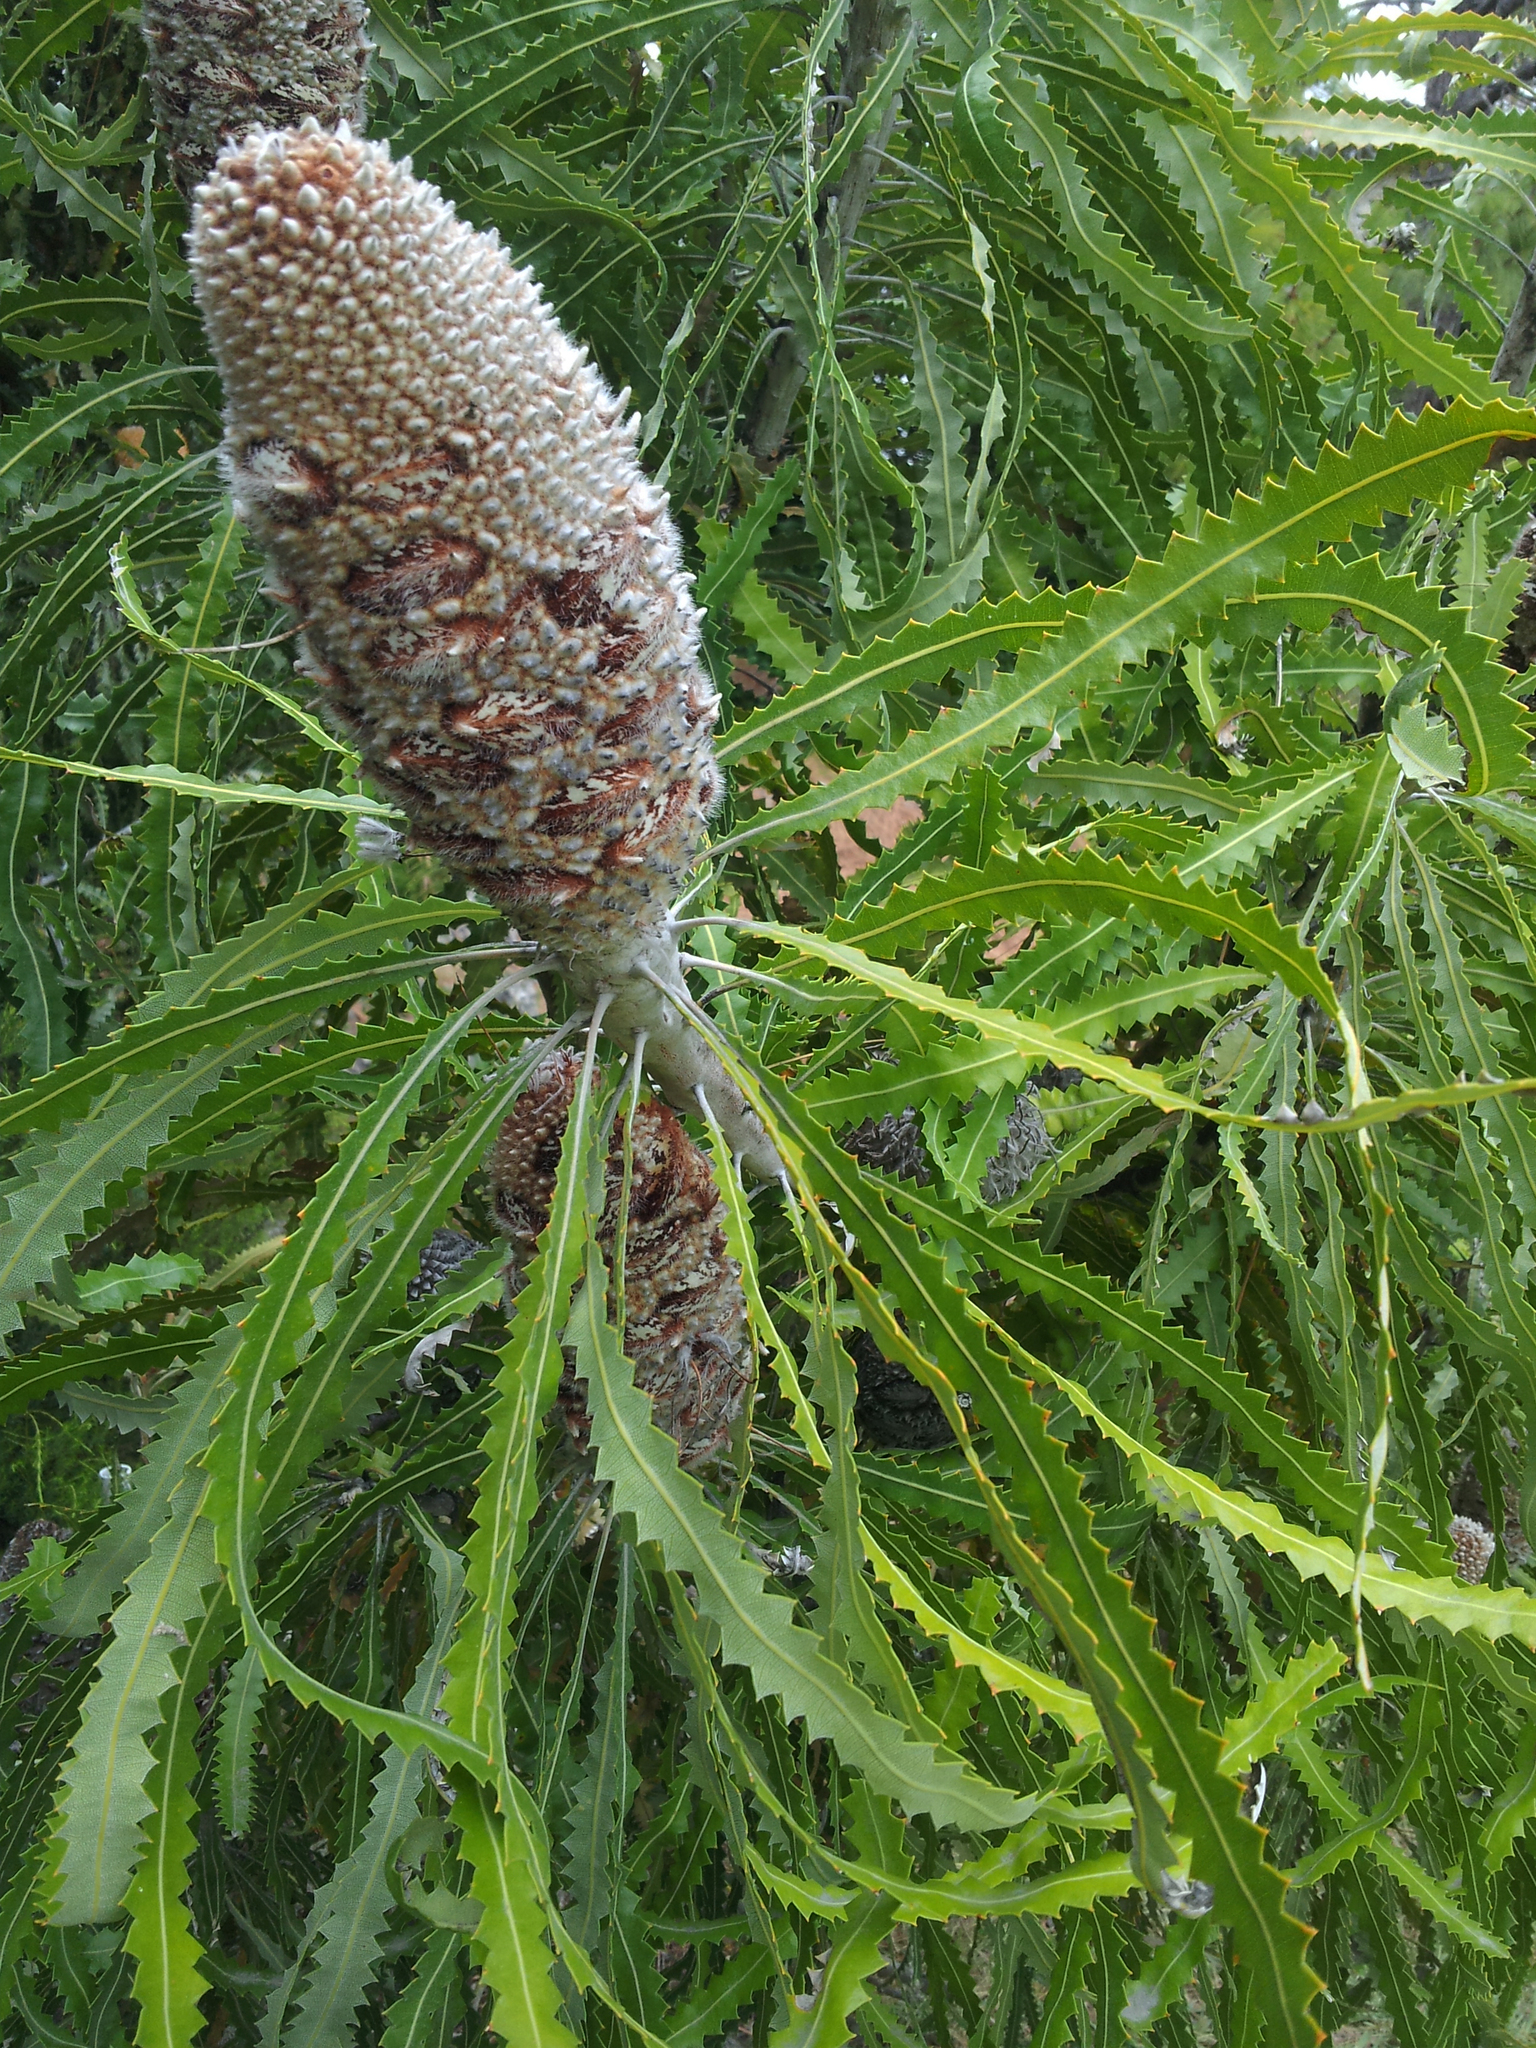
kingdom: Plantae
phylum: Tracheophyta
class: Magnoliopsida
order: Proteales
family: Proteaceae
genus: Banksia
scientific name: Banksia prionotes
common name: Acorn banksia
